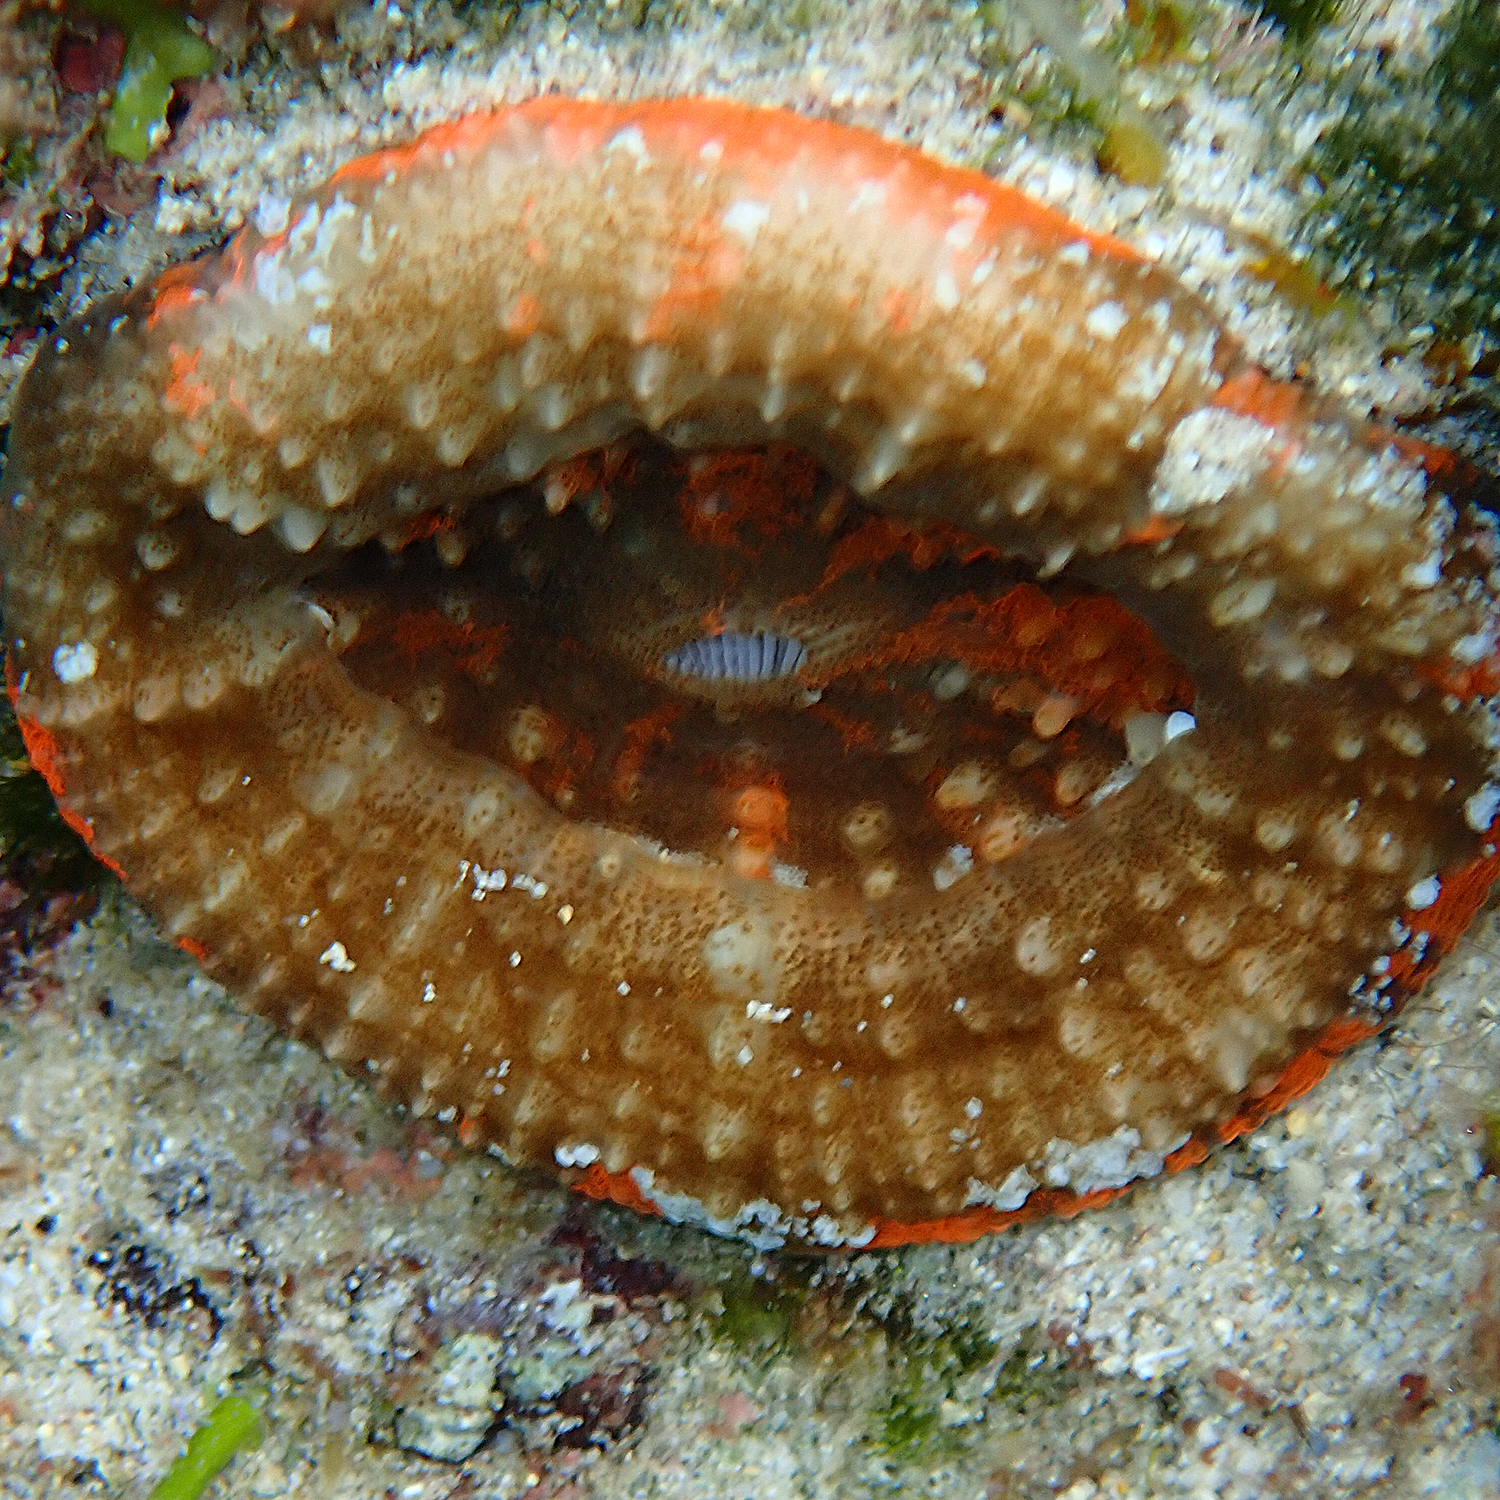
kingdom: Animalia
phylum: Cnidaria
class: Anthozoa
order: Scleractinia
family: Lobophylliidae
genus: Homophyllia
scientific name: Homophyllia australis
